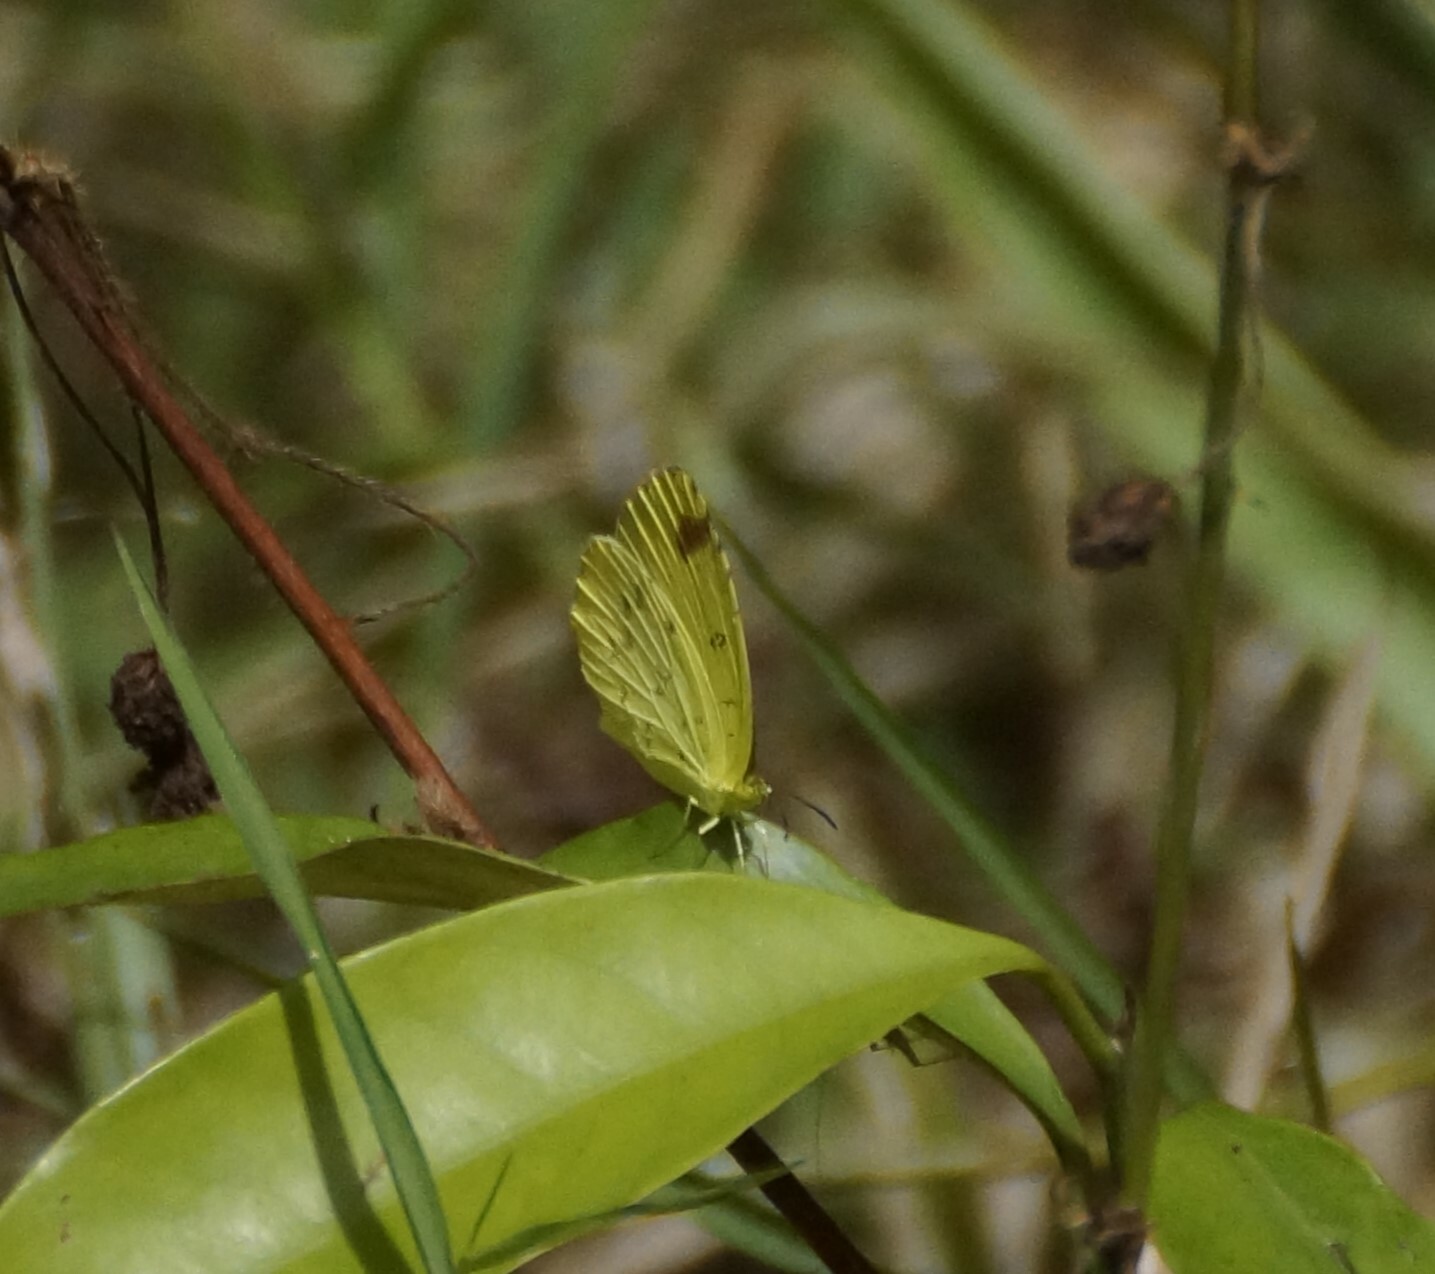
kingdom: Animalia
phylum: Arthropoda
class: Insecta
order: Lepidoptera
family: Pieridae
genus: Eurema
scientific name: Eurema hecabe
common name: Pale grass yellow
